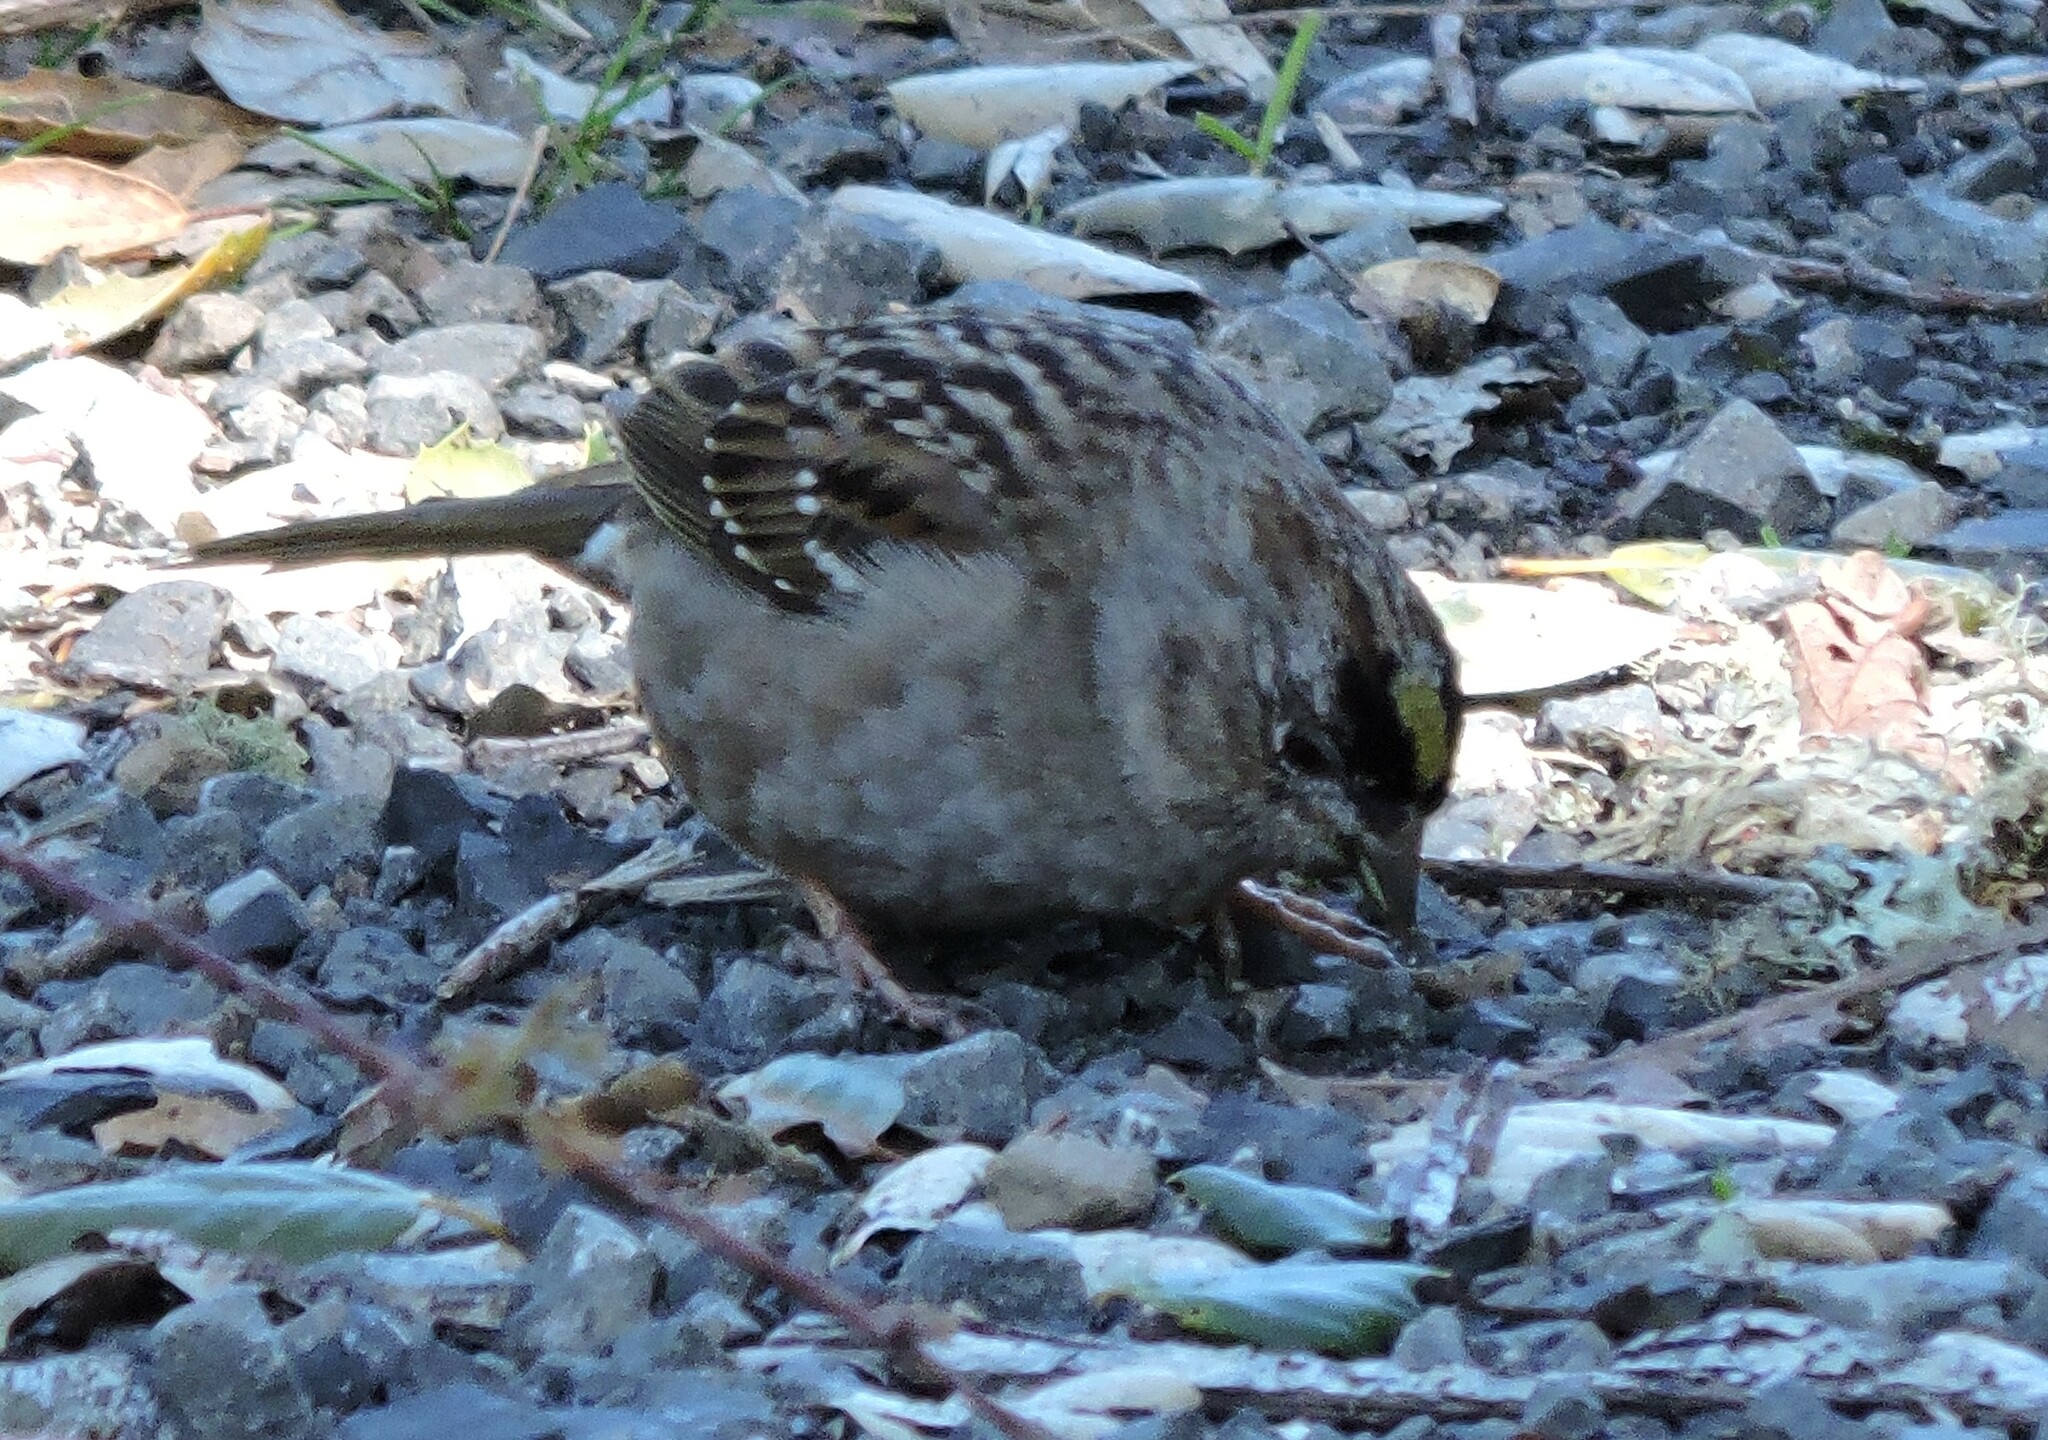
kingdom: Animalia
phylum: Chordata
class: Aves
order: Passeriformes
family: Passerellidae
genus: Zonotrichia
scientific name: Zonotrichia atricapilla
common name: Golden-crowned sparrow
